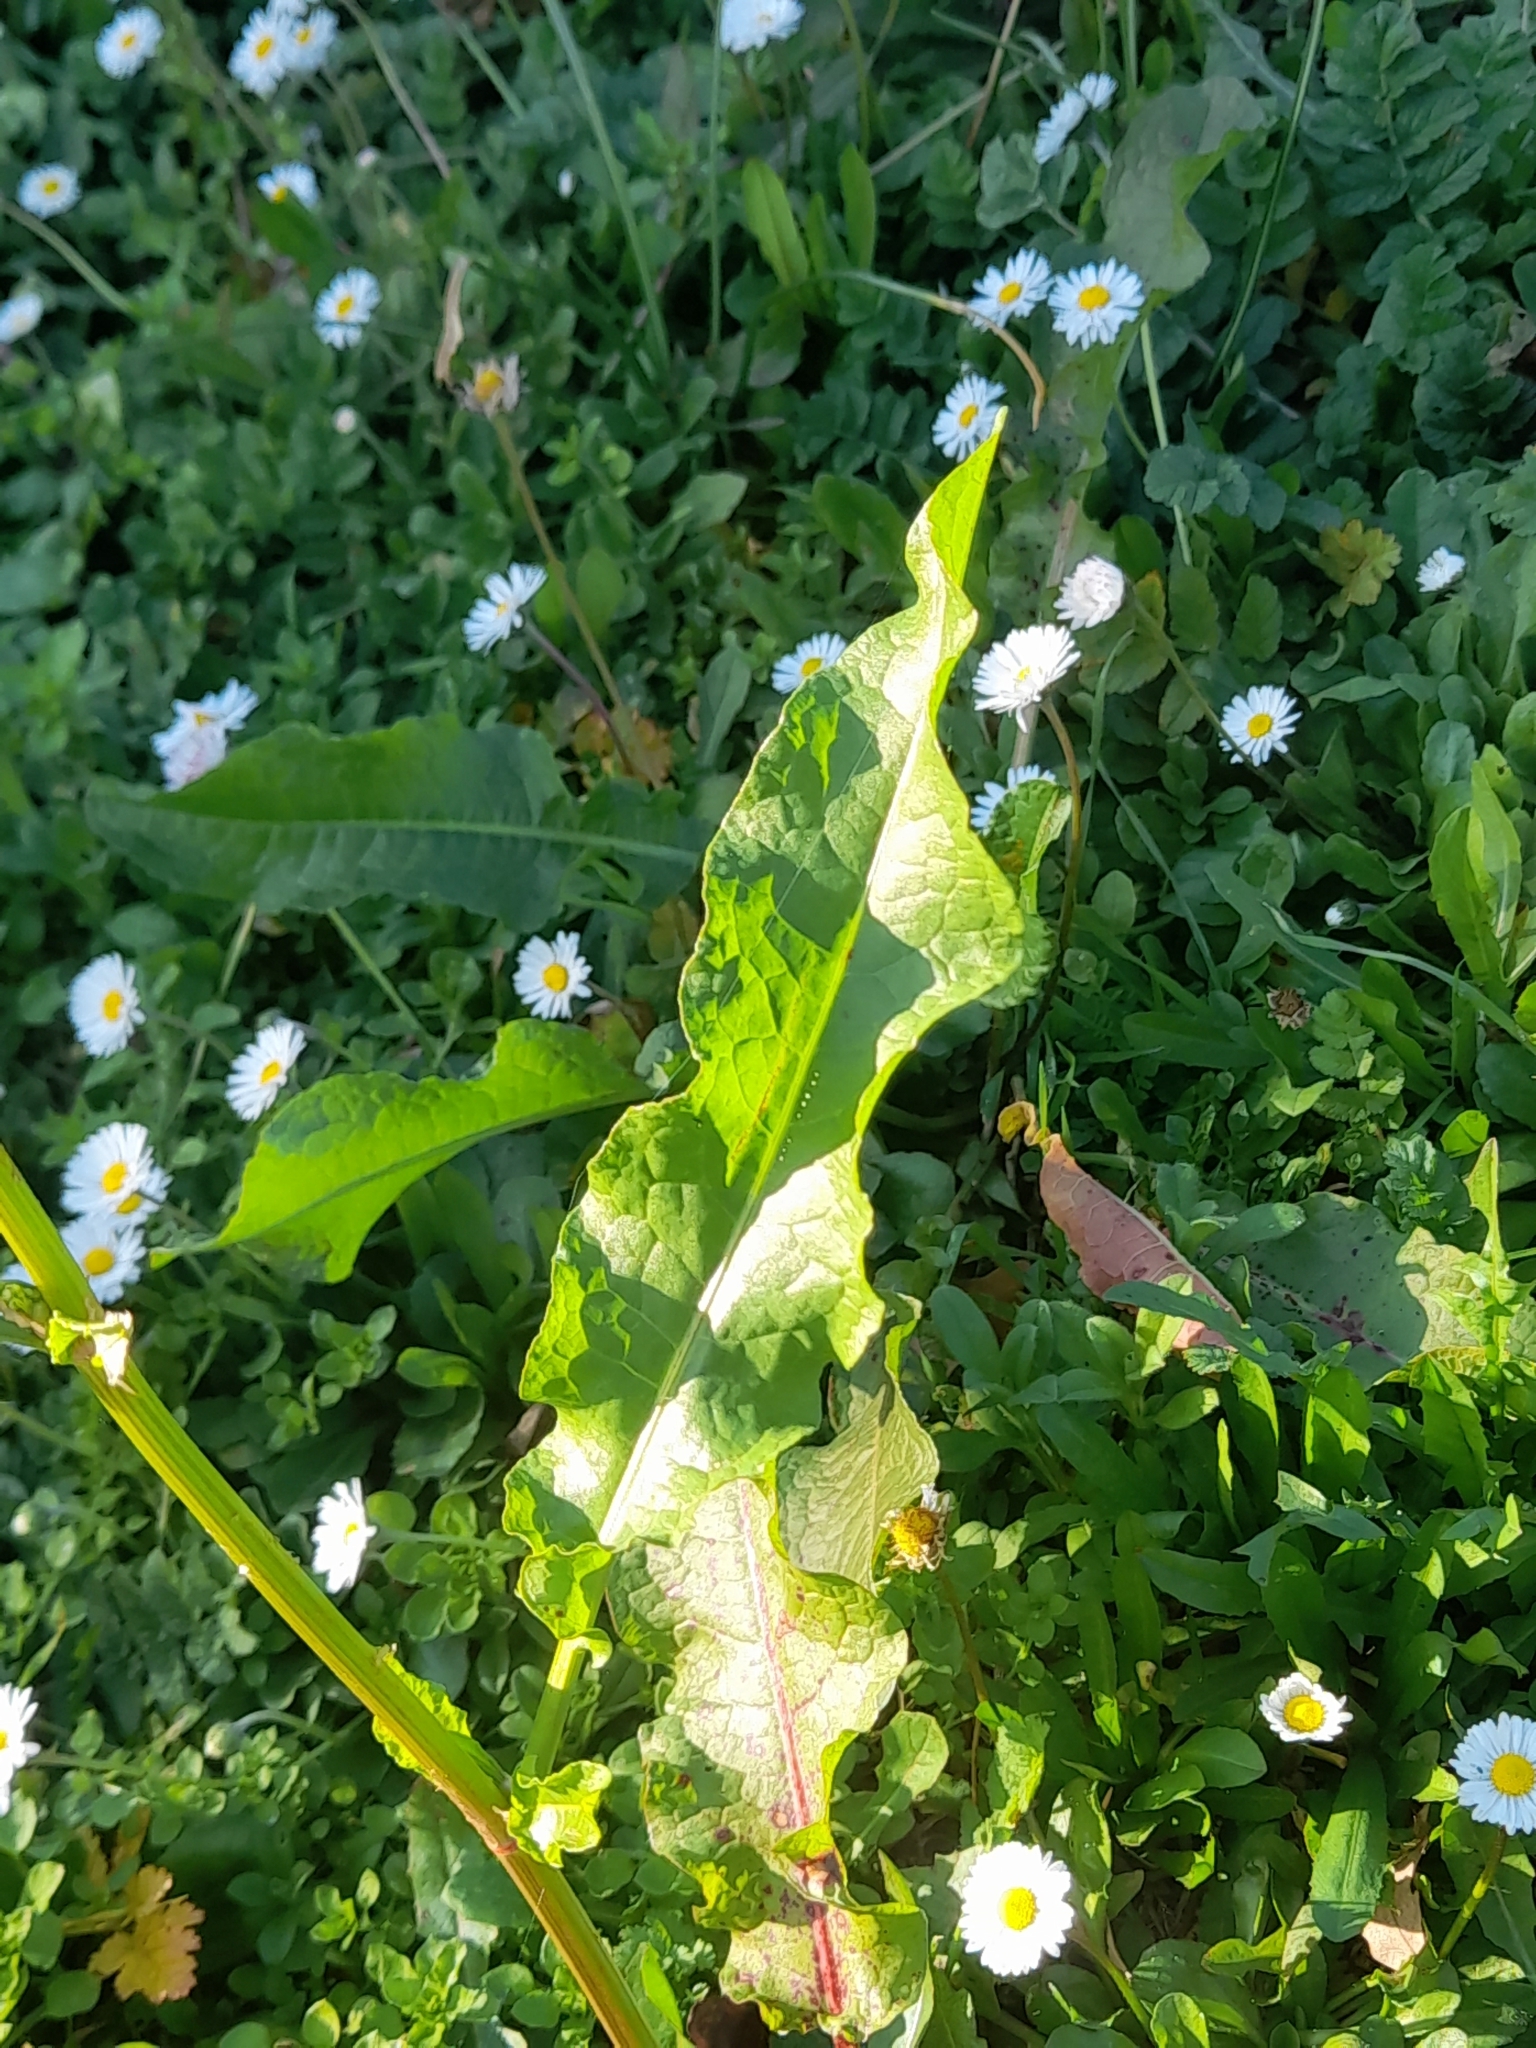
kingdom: Plantae
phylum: Tracheophyta
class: Magnoliopsida
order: Caryophyllales
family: Polygonaceae
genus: Rumex
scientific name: Rumex crispus
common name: Curled dock
